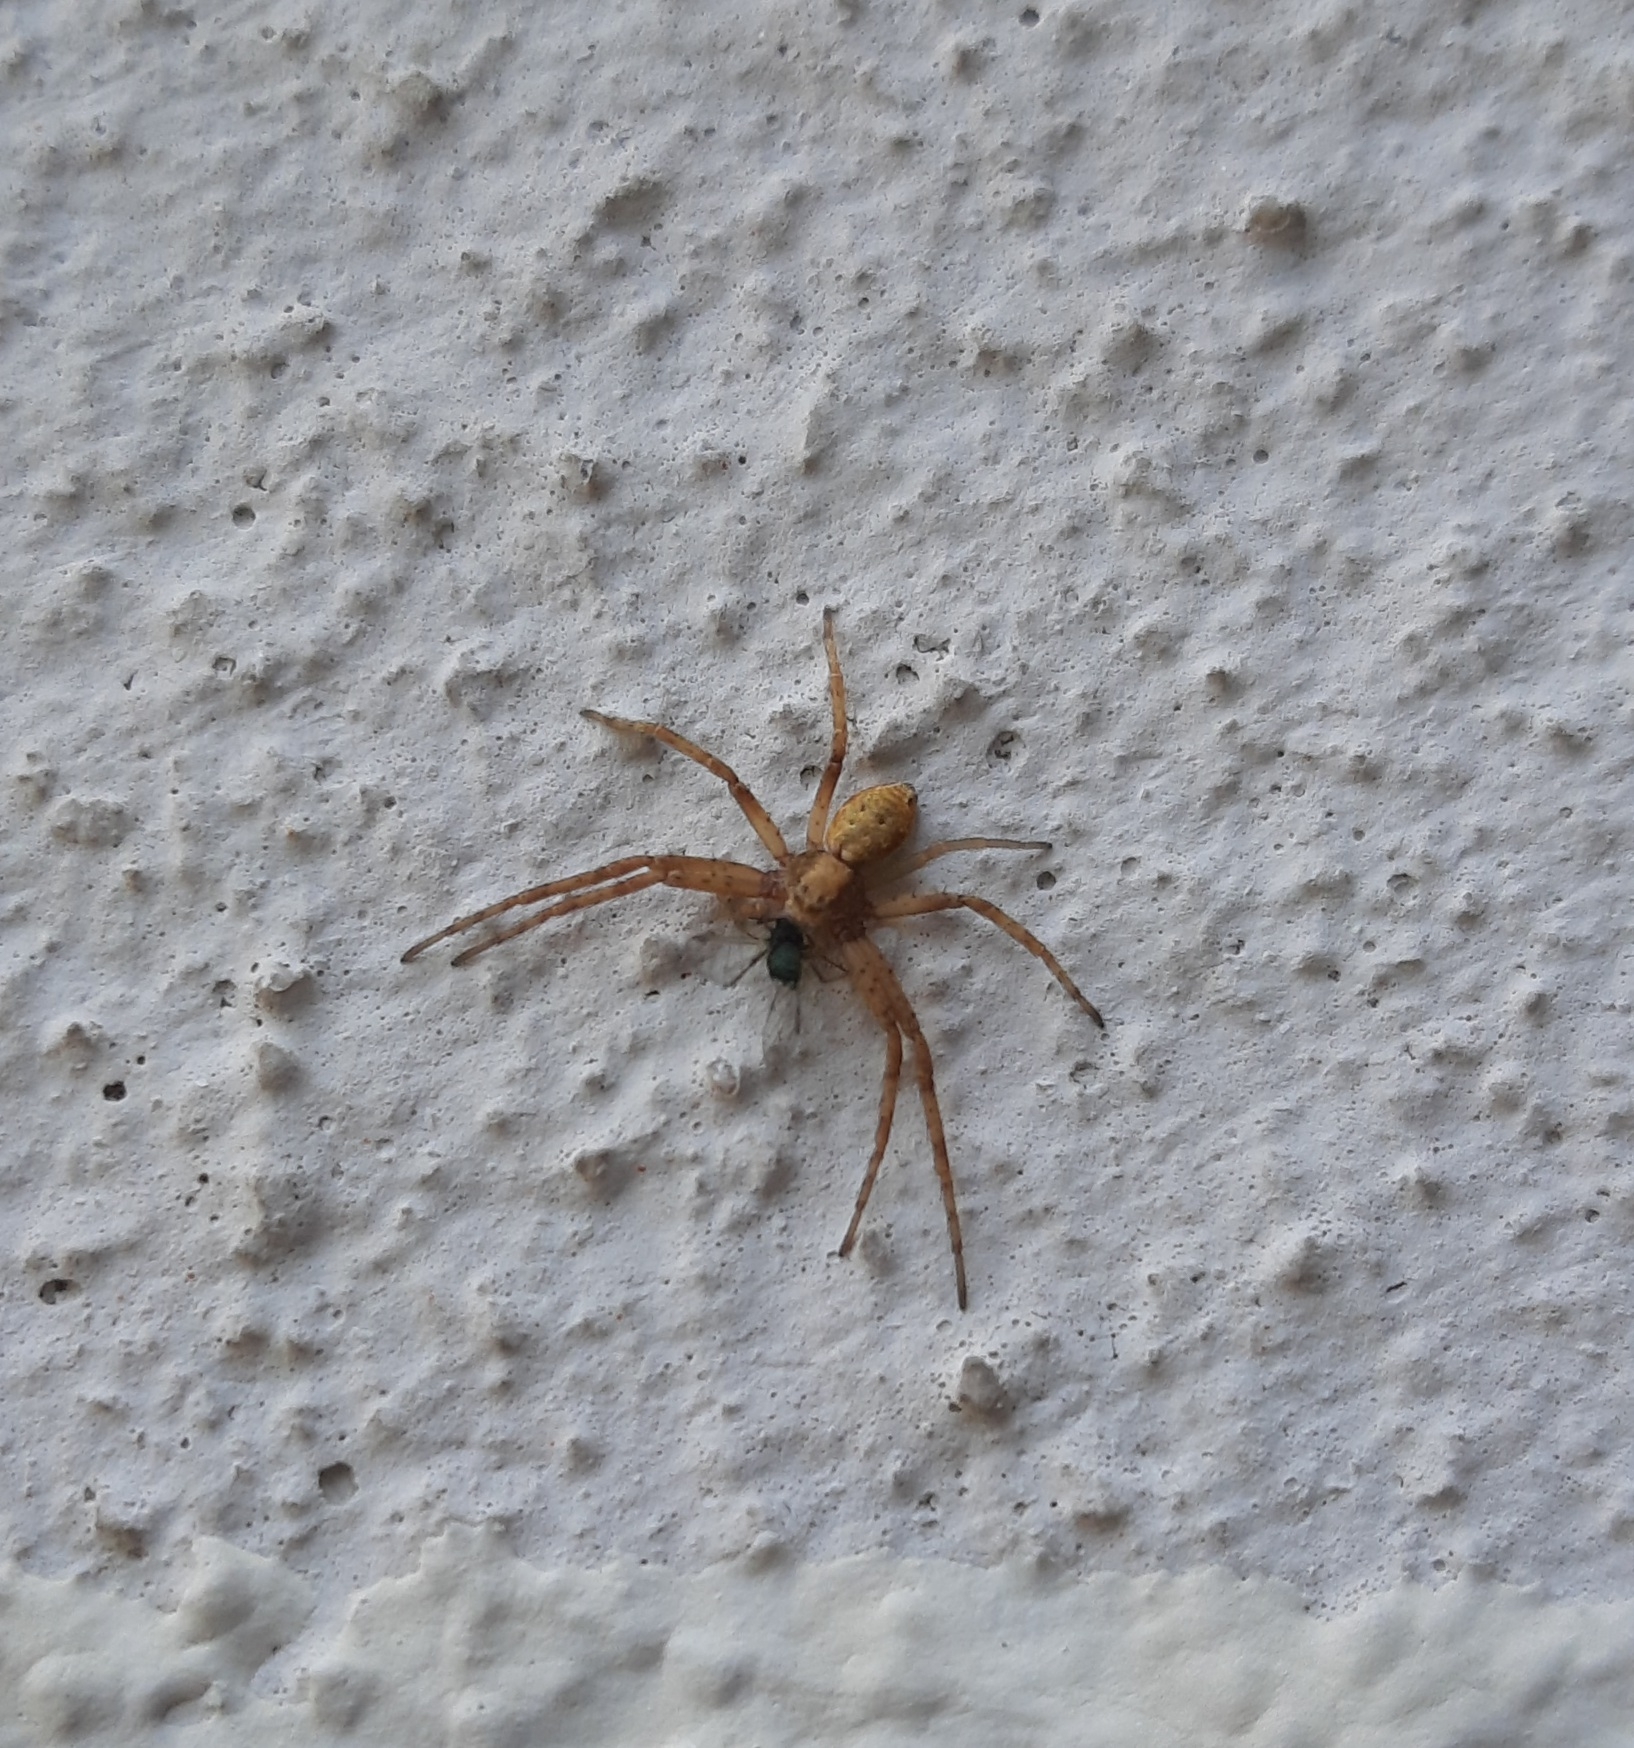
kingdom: Animalia
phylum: Arthropoda
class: Arachnida
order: Araneae
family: Philodromidae
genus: Philodromus
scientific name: Philodromus
